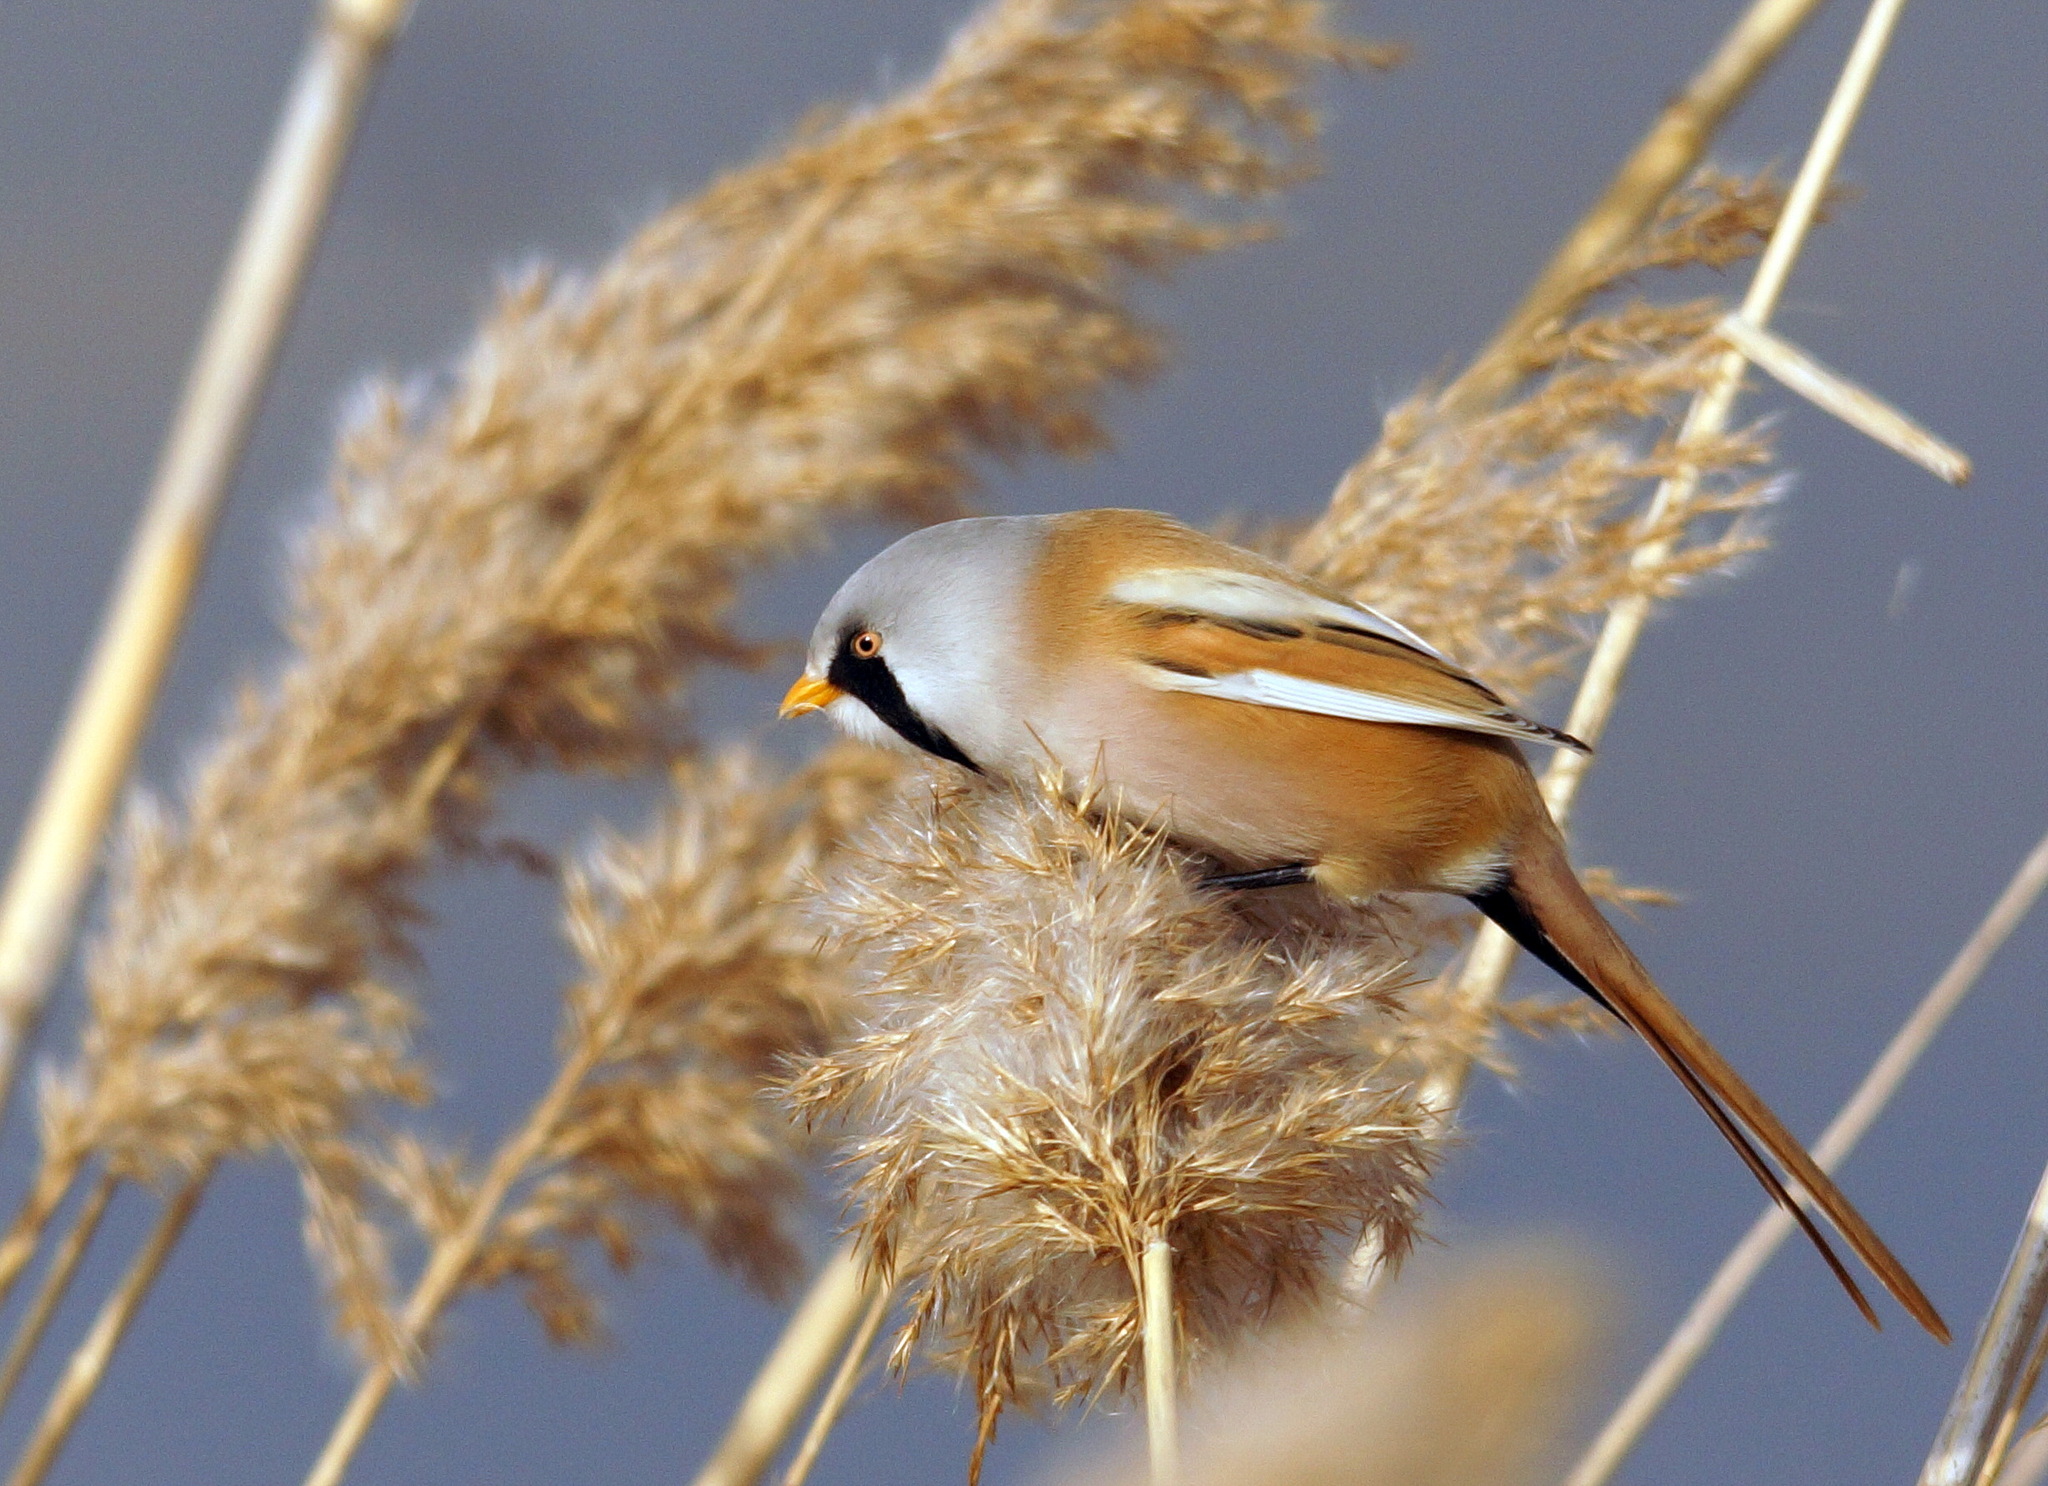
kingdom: Animalia
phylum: Chordata
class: Aves
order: Passeriformes
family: Panuridae
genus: Panurus
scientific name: Panurus biarmicus
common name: Bearded reedling
